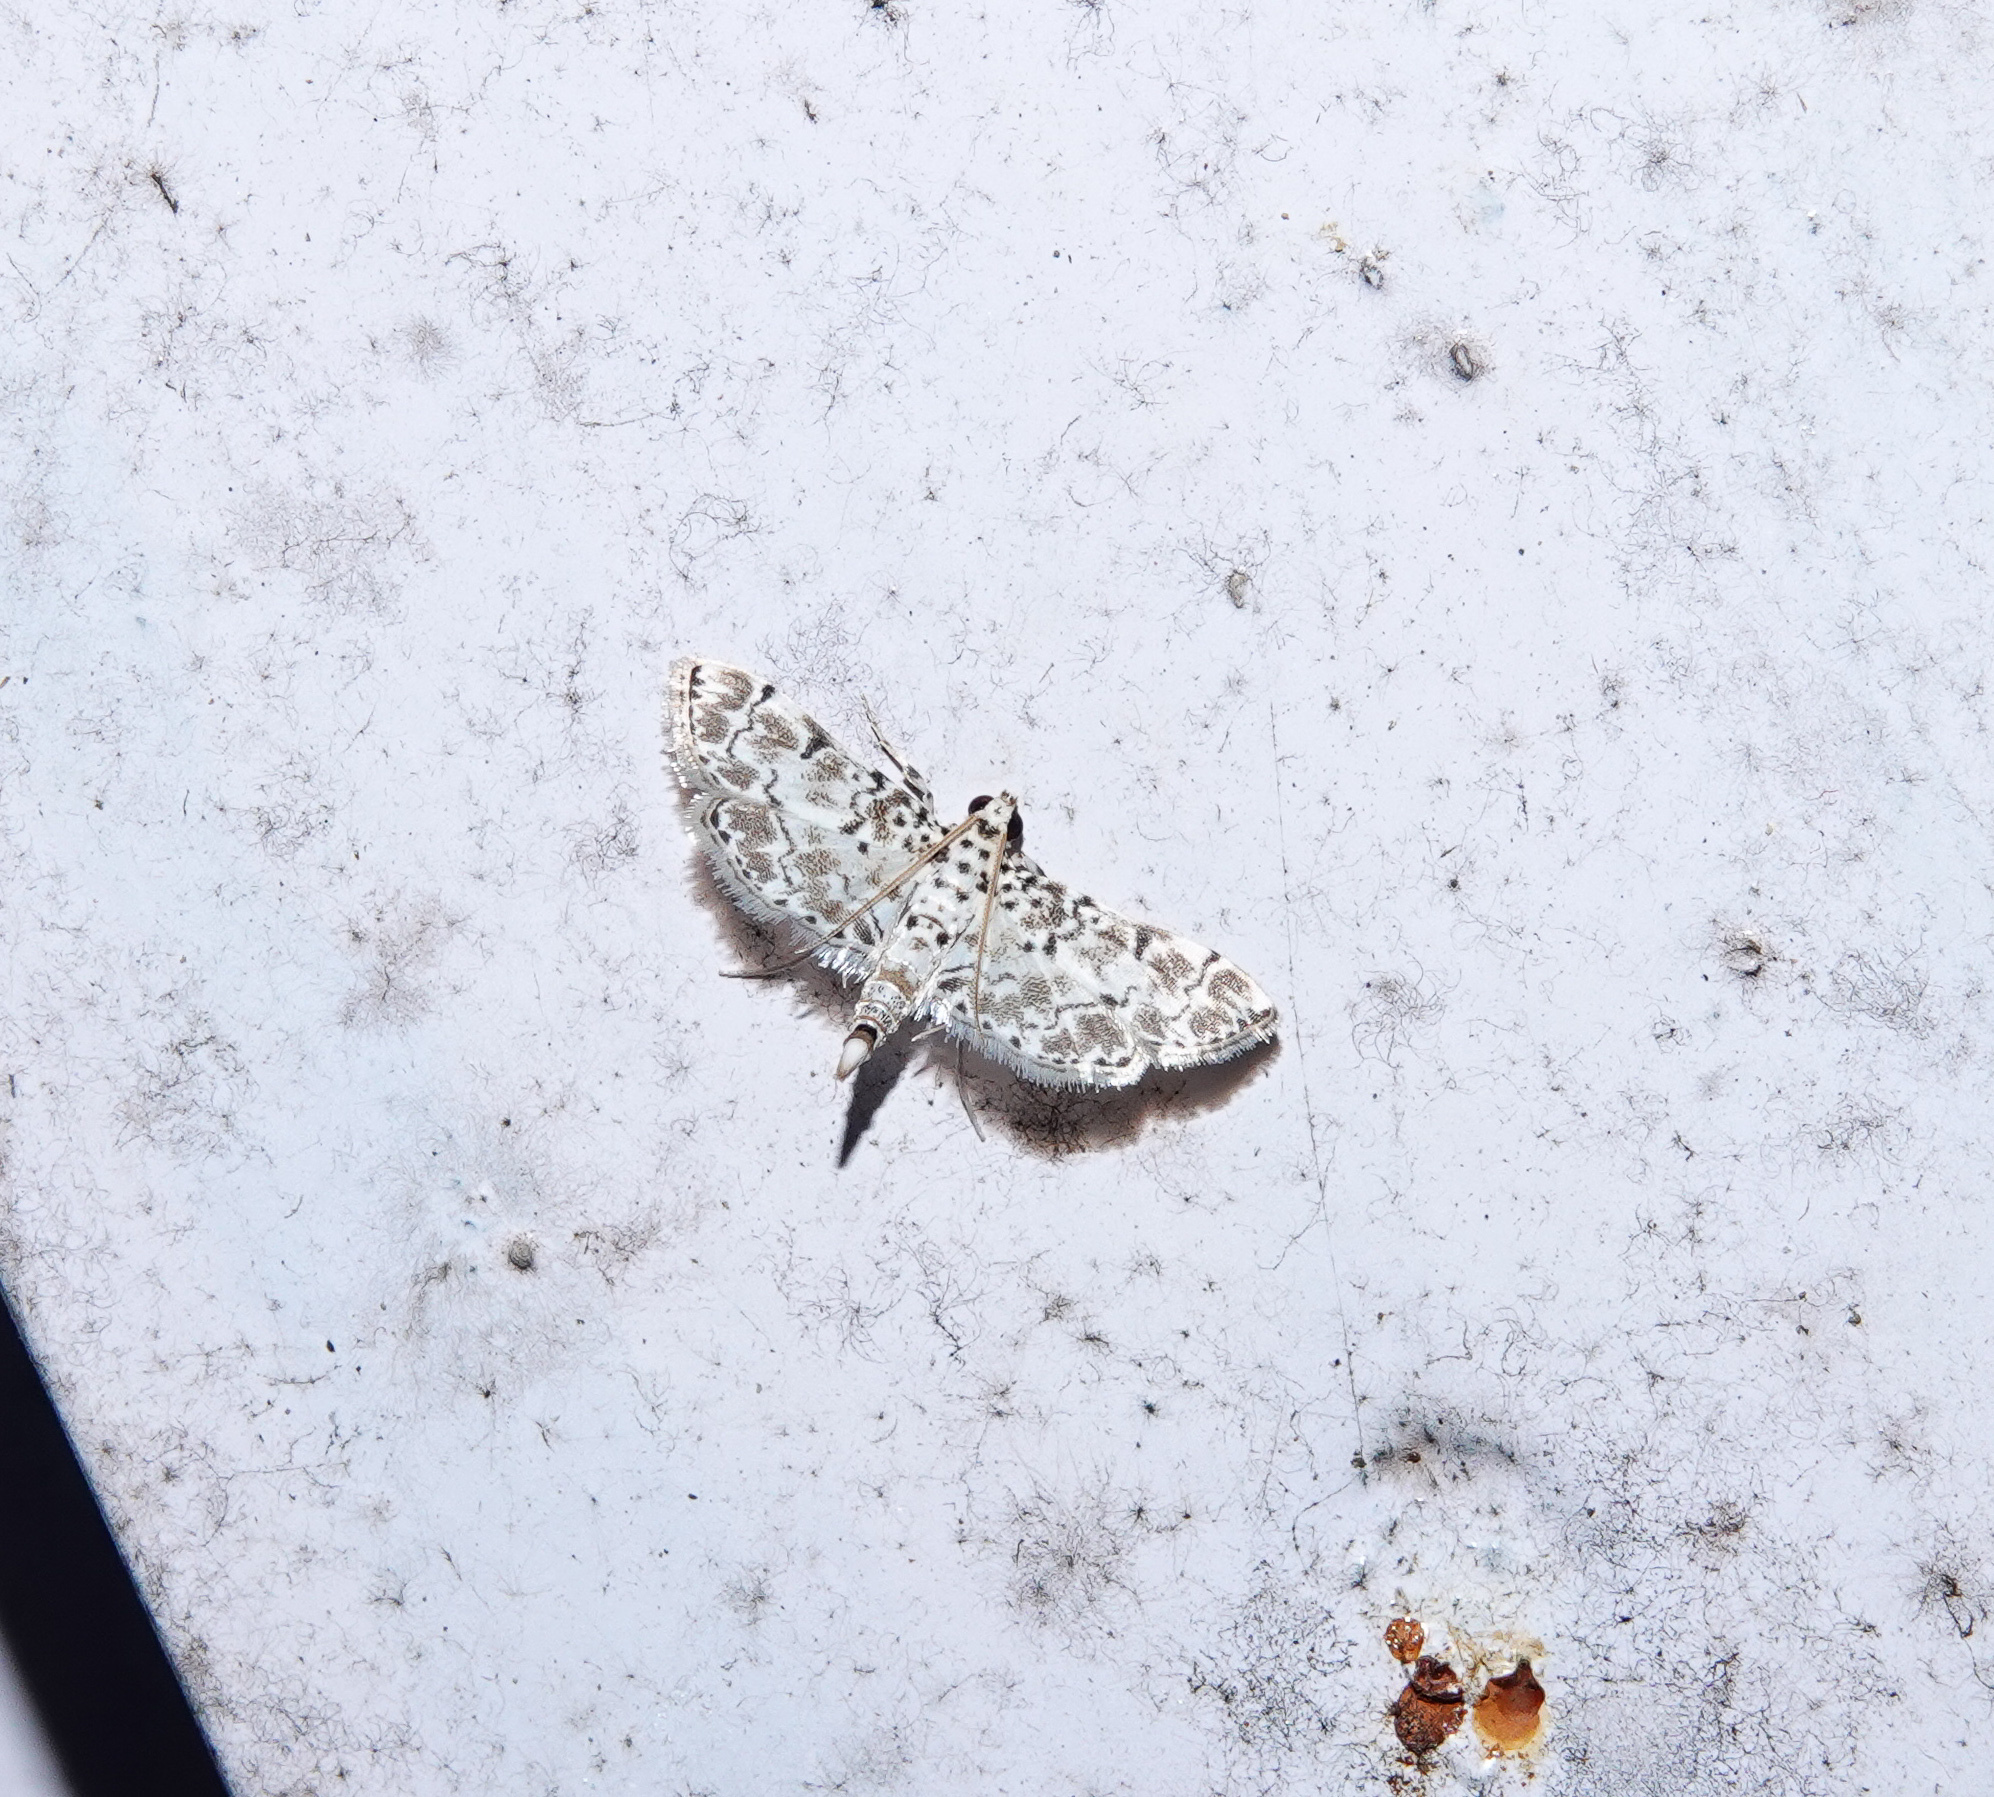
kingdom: Animalia
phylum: Arthropoda
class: Insecta
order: Lepidoptera
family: Crambidae
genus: Metoeca
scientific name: Metoeca foedalis
